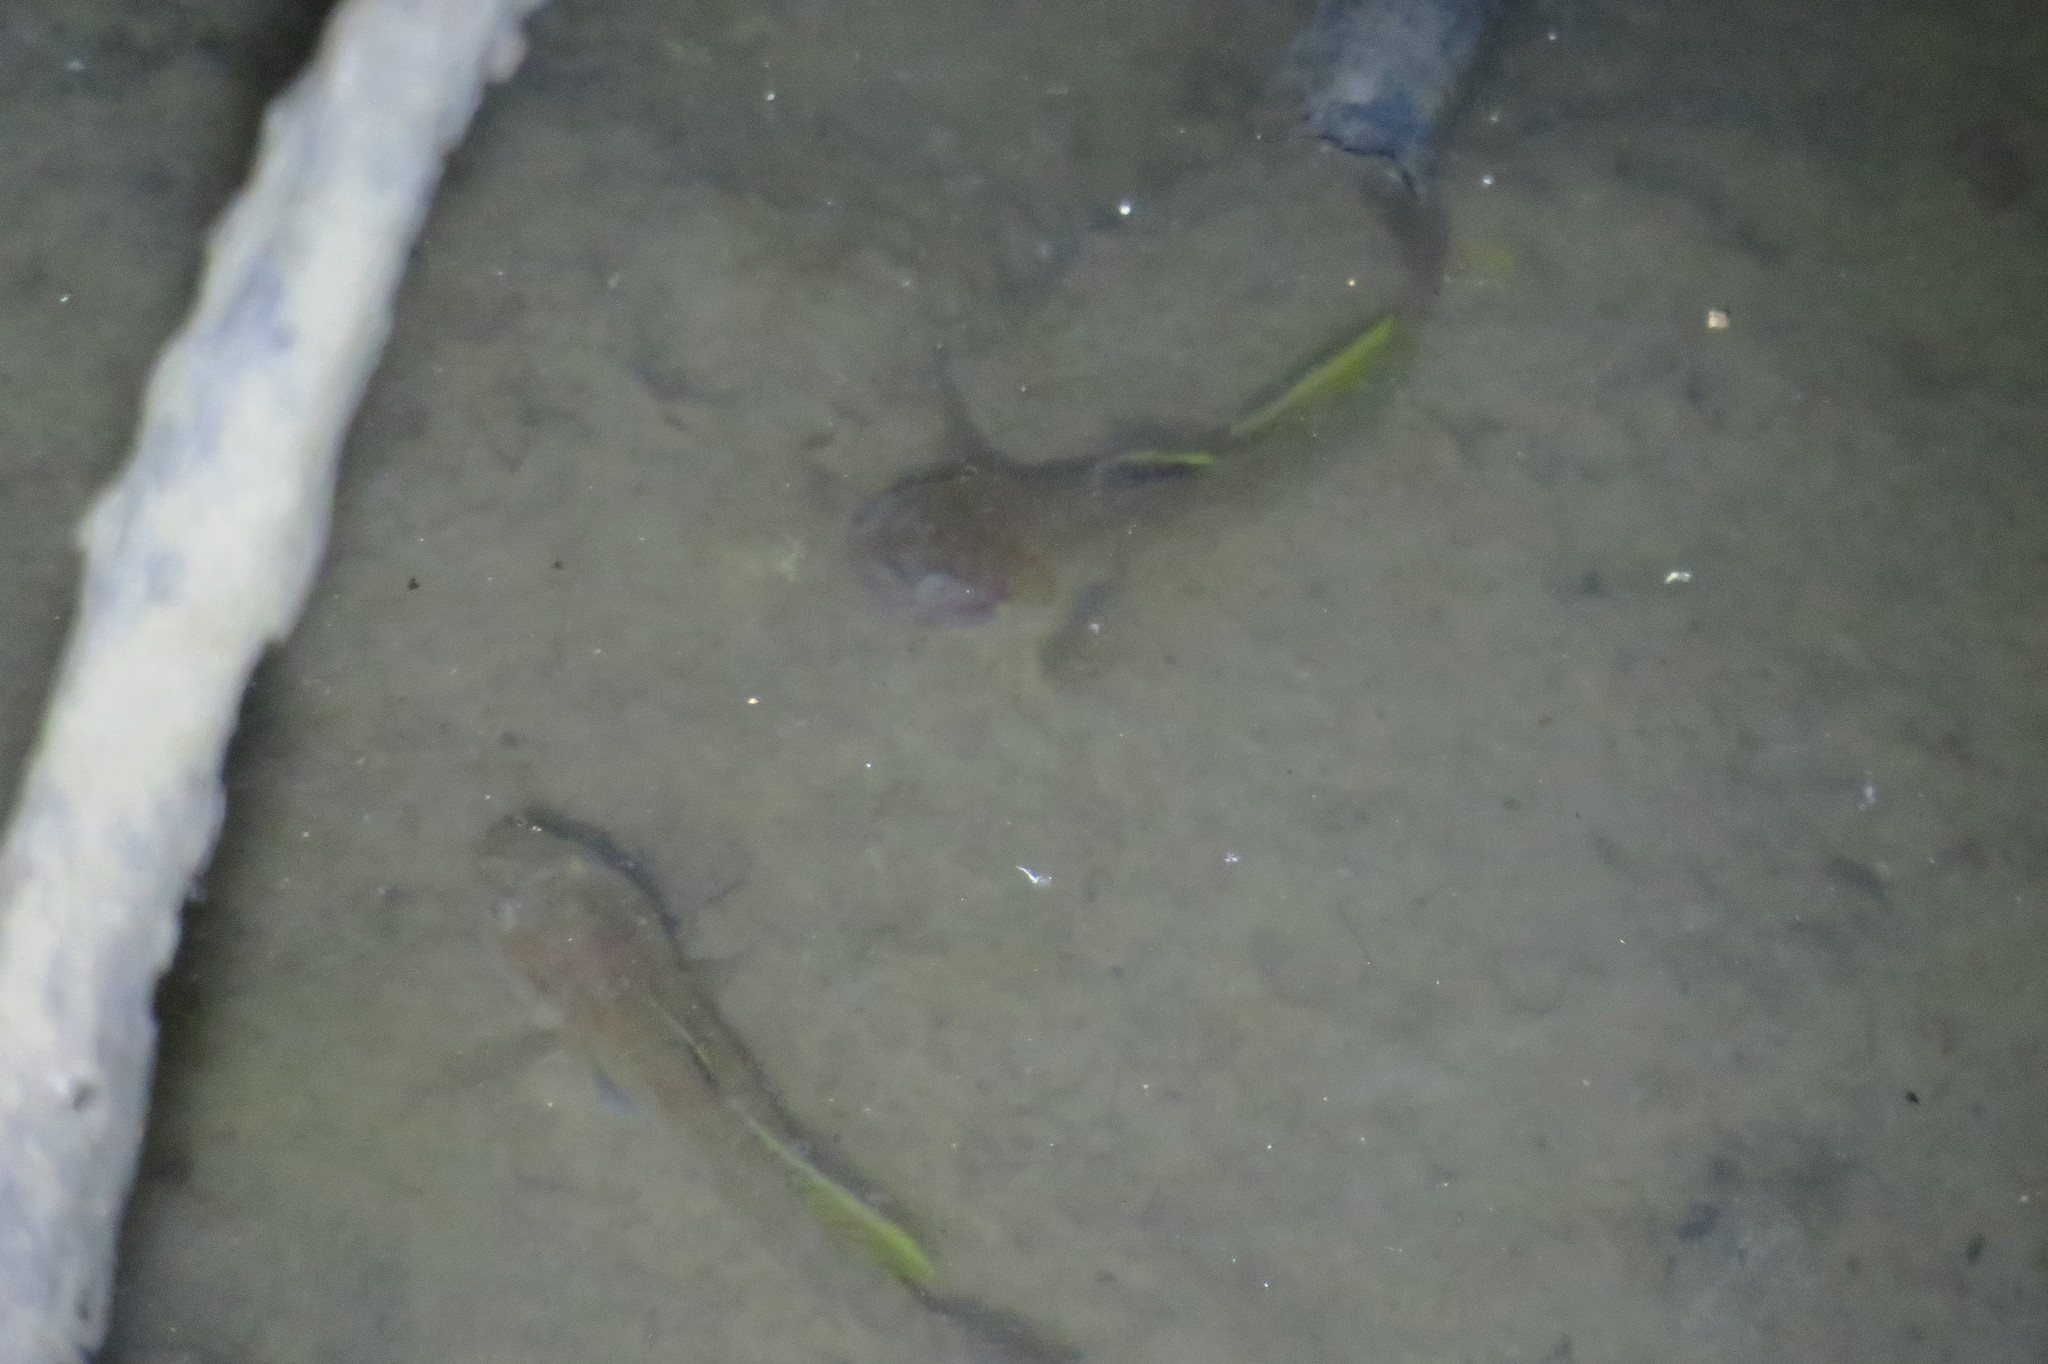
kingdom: Animalia
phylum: Chordata
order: Perciformes
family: Gobiidae
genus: Mugilogobius
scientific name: Mugilogobius platystomus
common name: Indonesian goby
